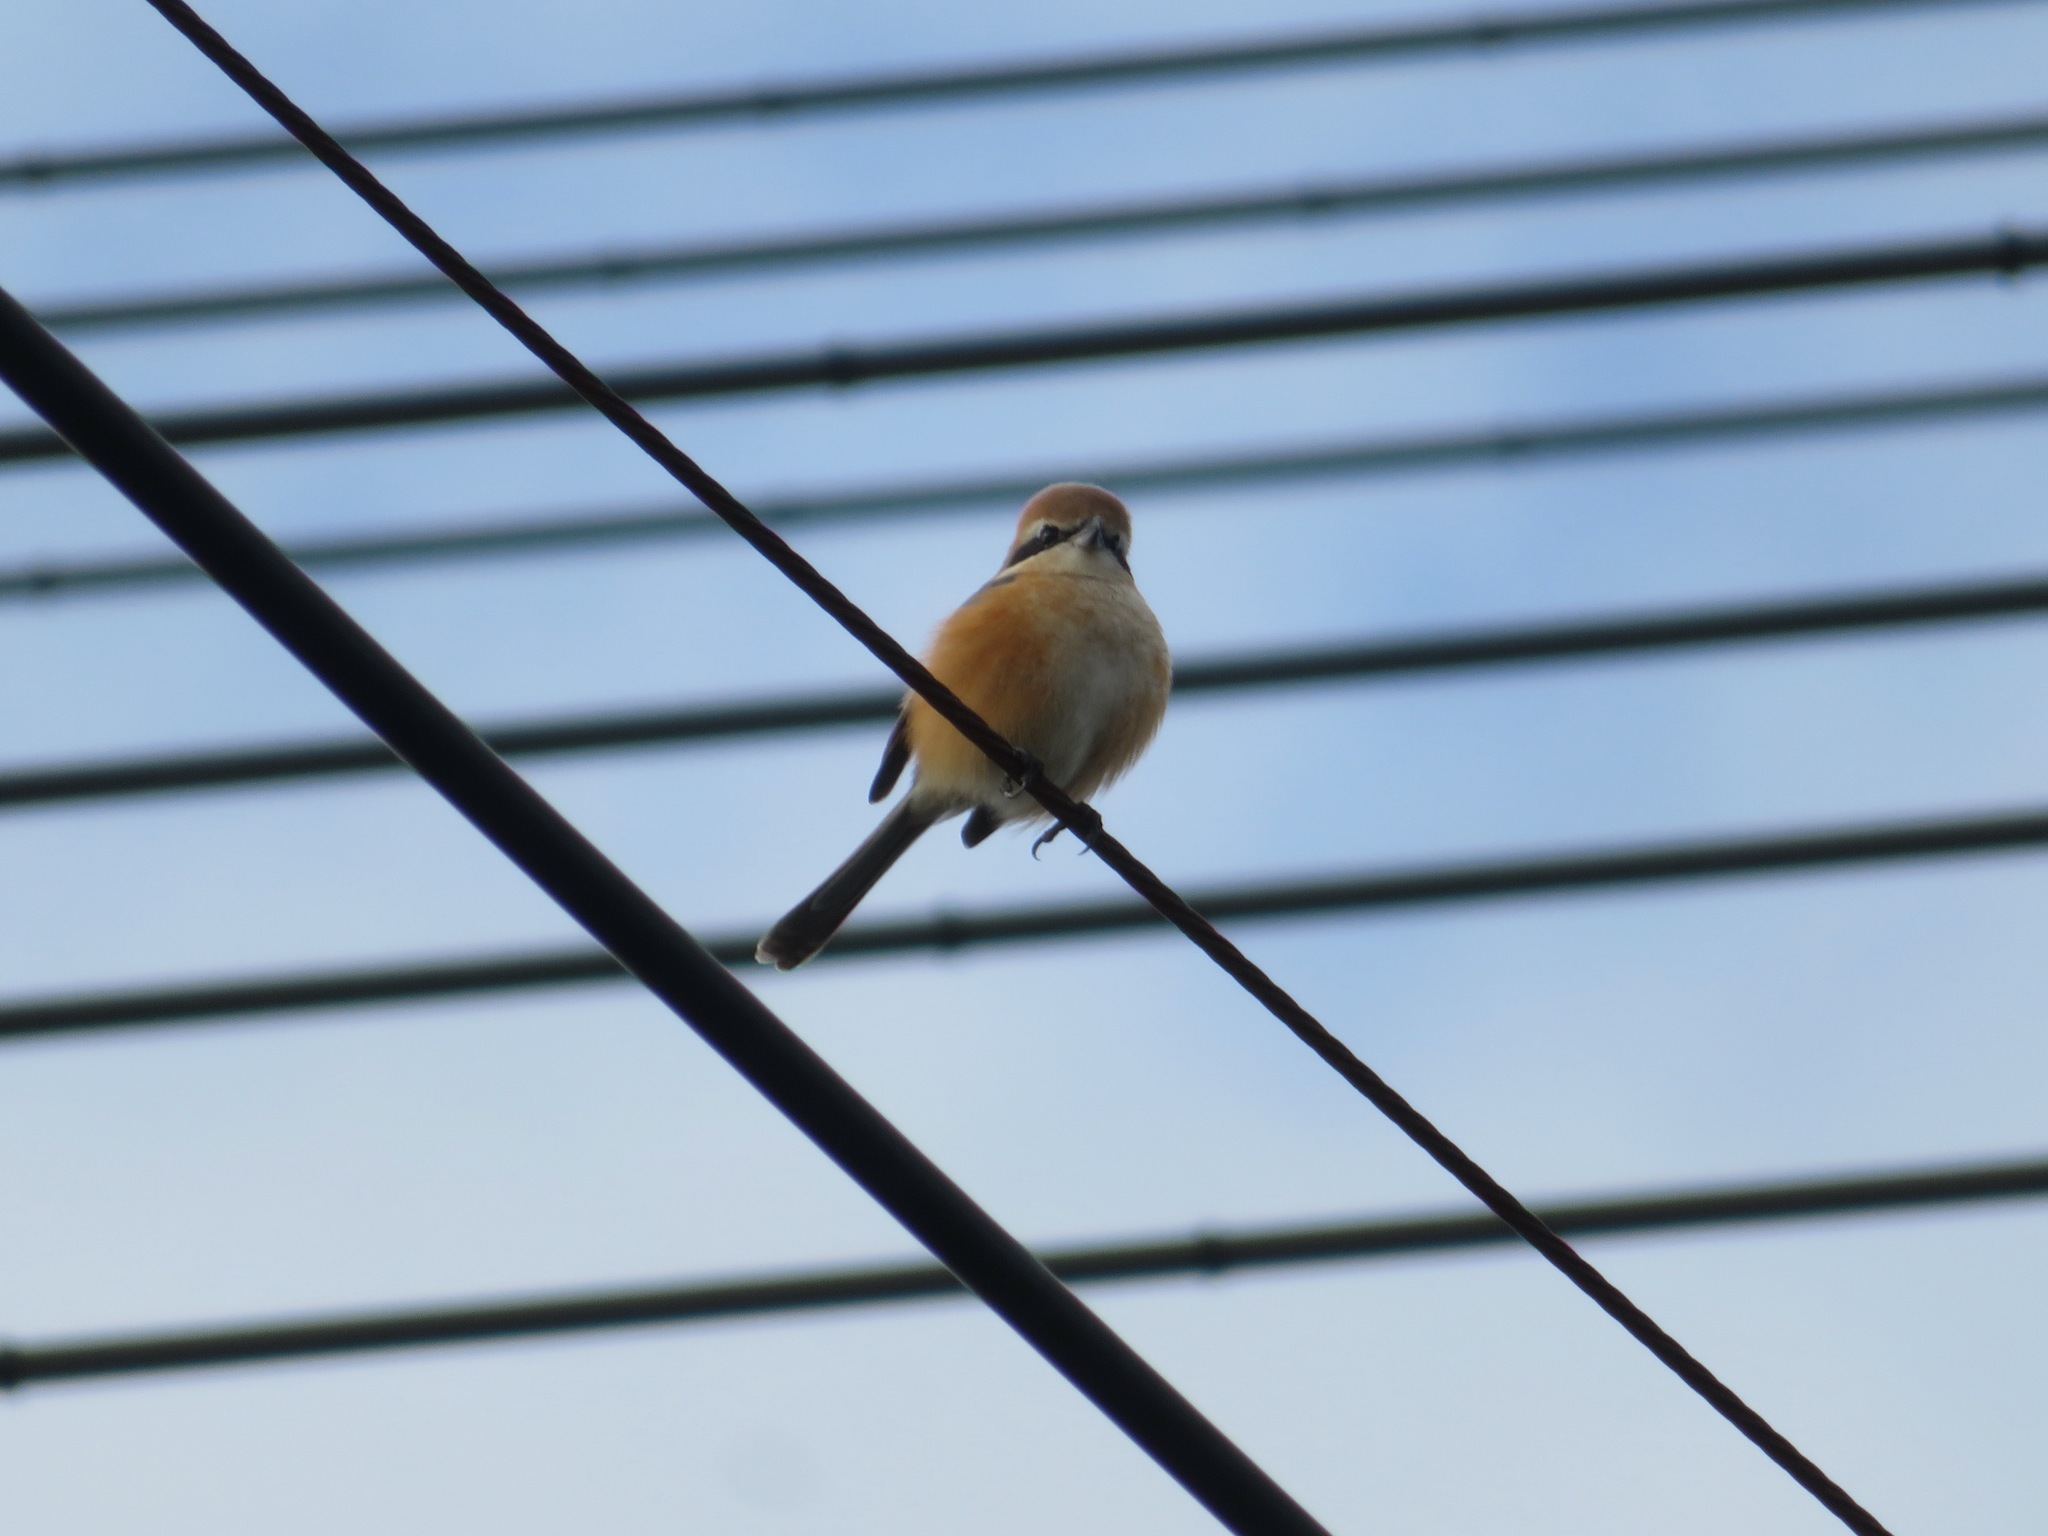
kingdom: Animalia
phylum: Chordata
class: Aves
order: Passeriformes
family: Laniidae
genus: Lanius
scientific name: Lanius bucephalus
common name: Bull-headed shrike
